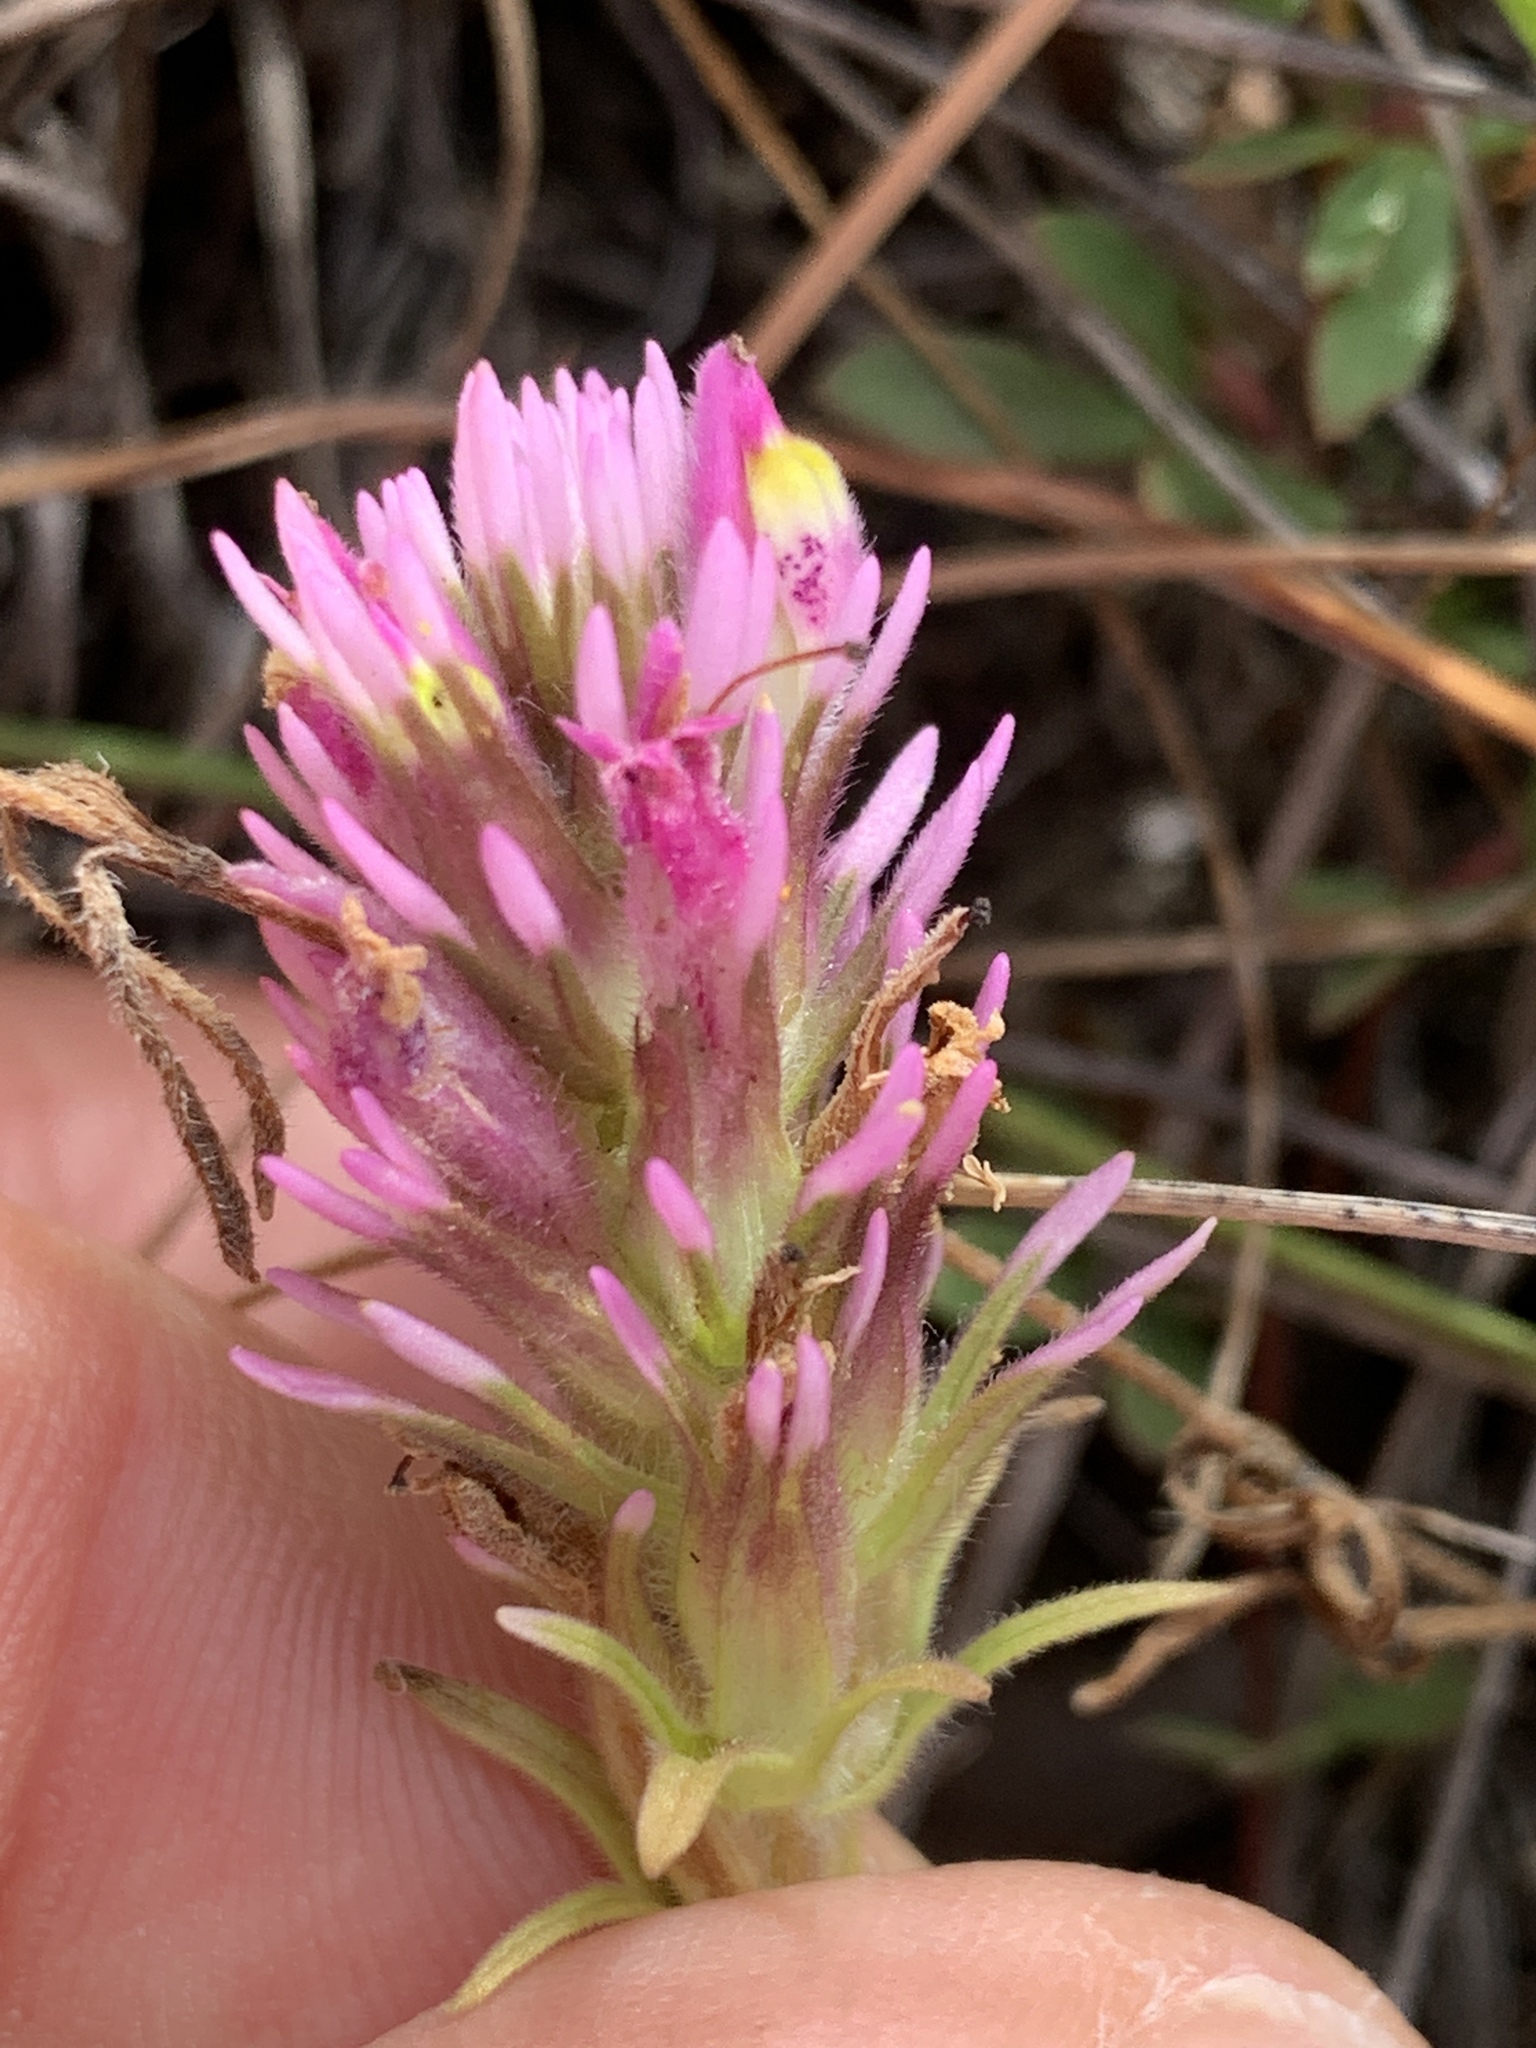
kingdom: Plantae
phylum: Tracheophyta
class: Magnoliopsida
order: Lamiales
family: Orobanchaceae
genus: Castilleja
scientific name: Castilleja densiflora
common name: Dense-flower indian paintbrush
